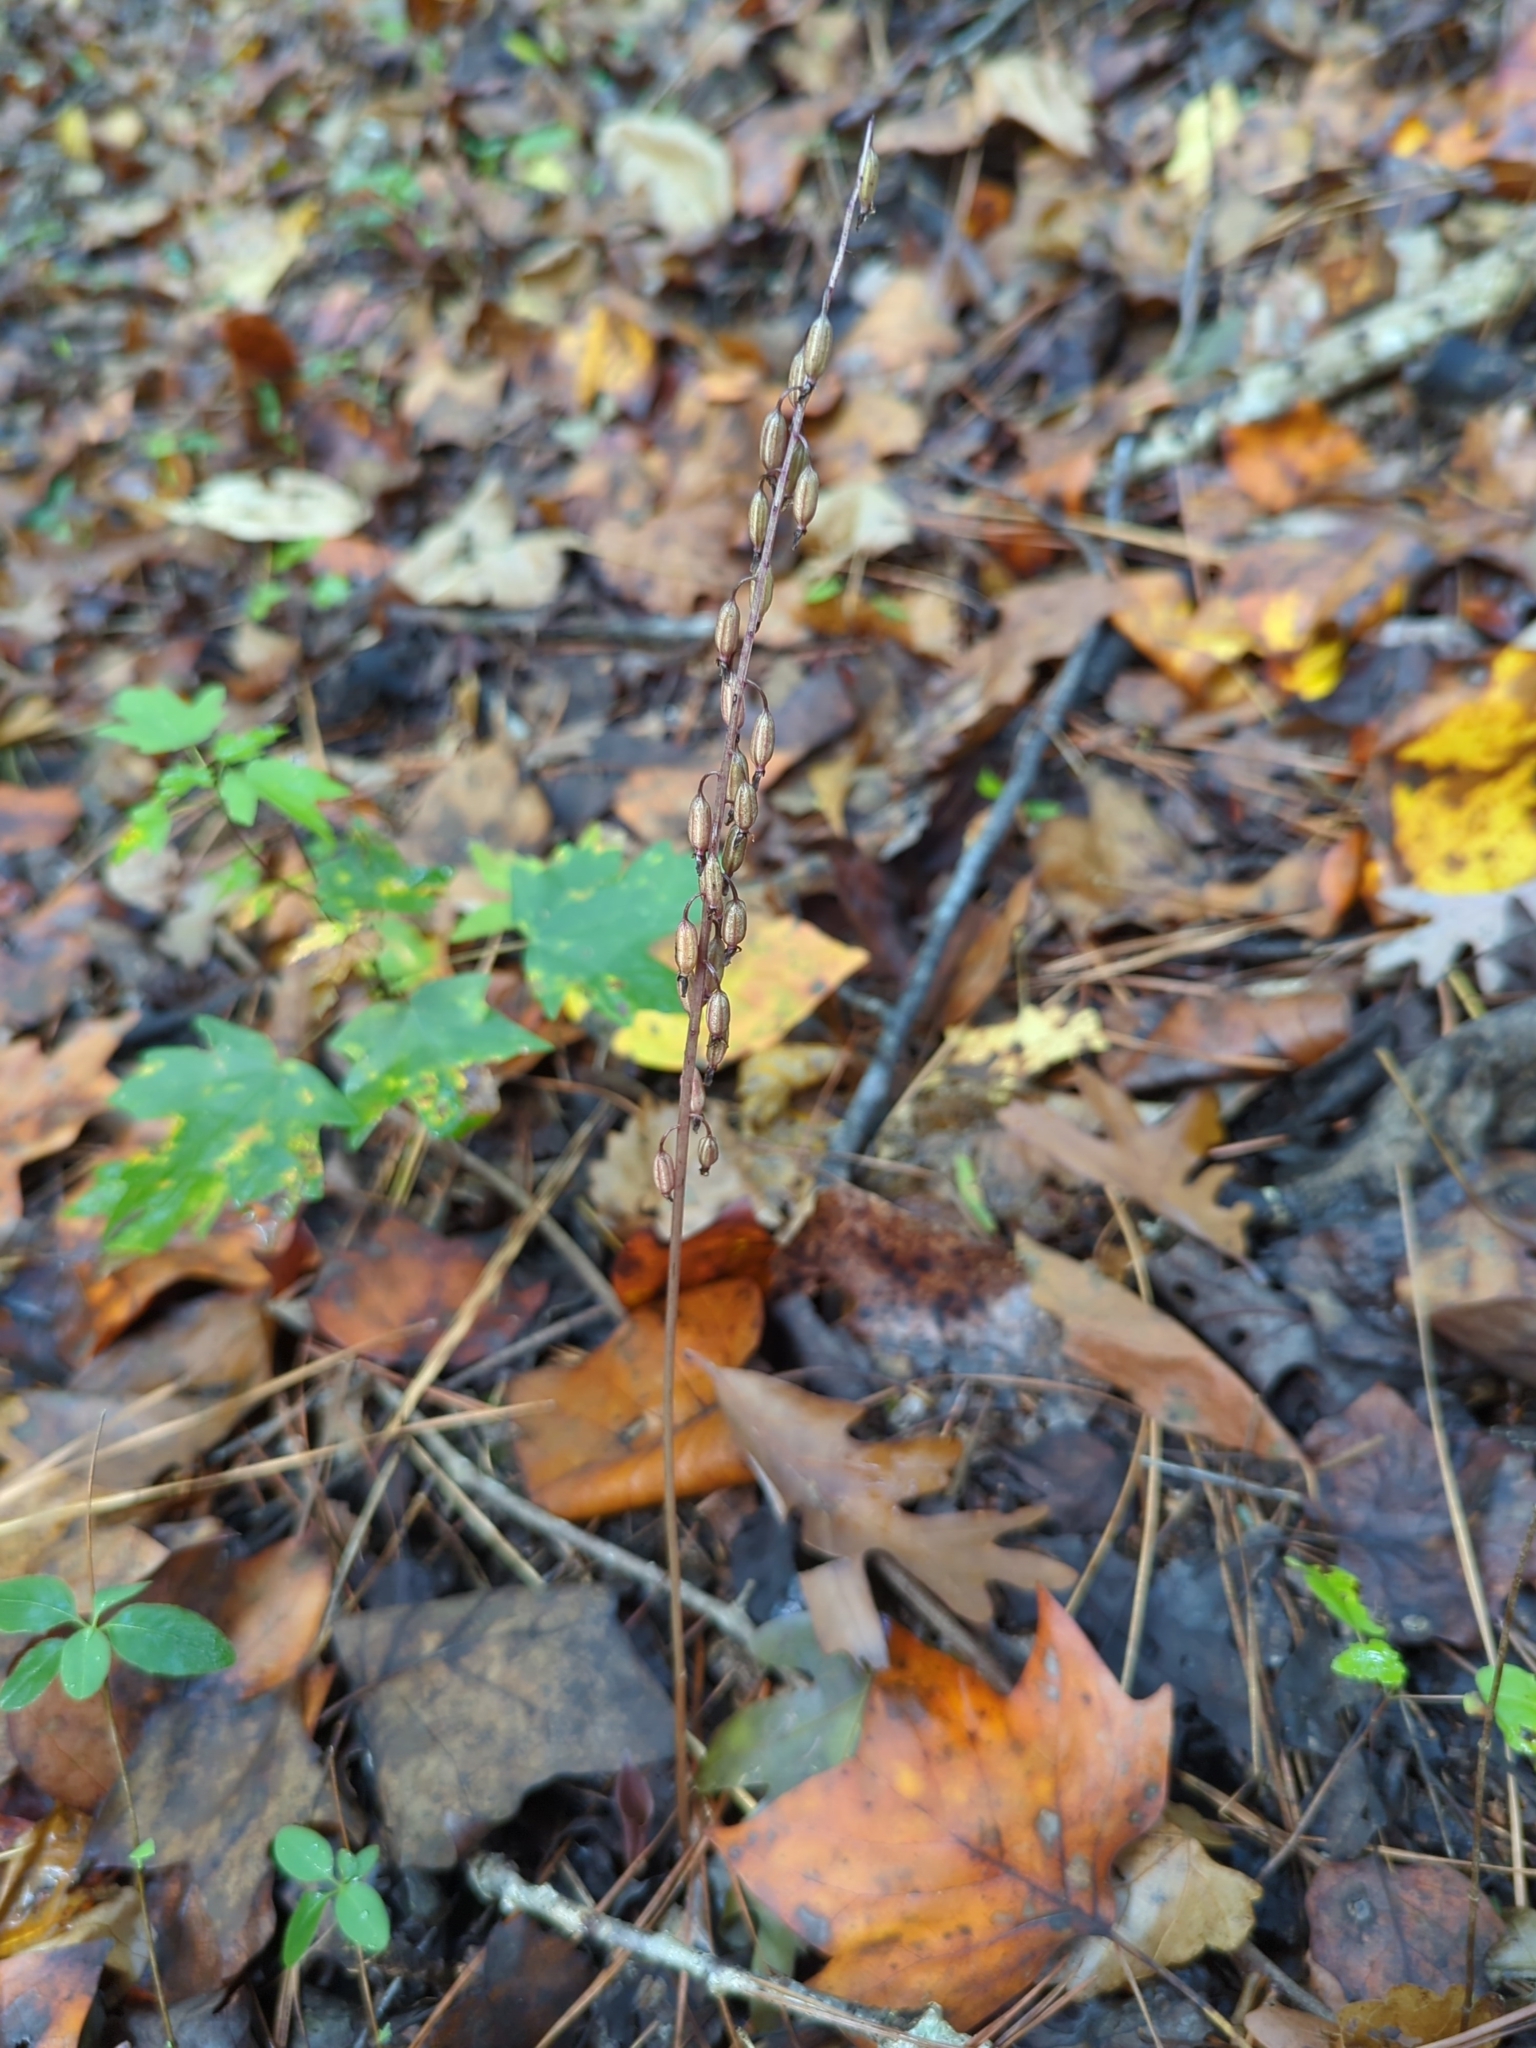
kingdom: Plantae
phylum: Tracheophyta
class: Liliopsida
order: Asparagales
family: Orchidaceae
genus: Tipularia
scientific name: Tipularia discolor
